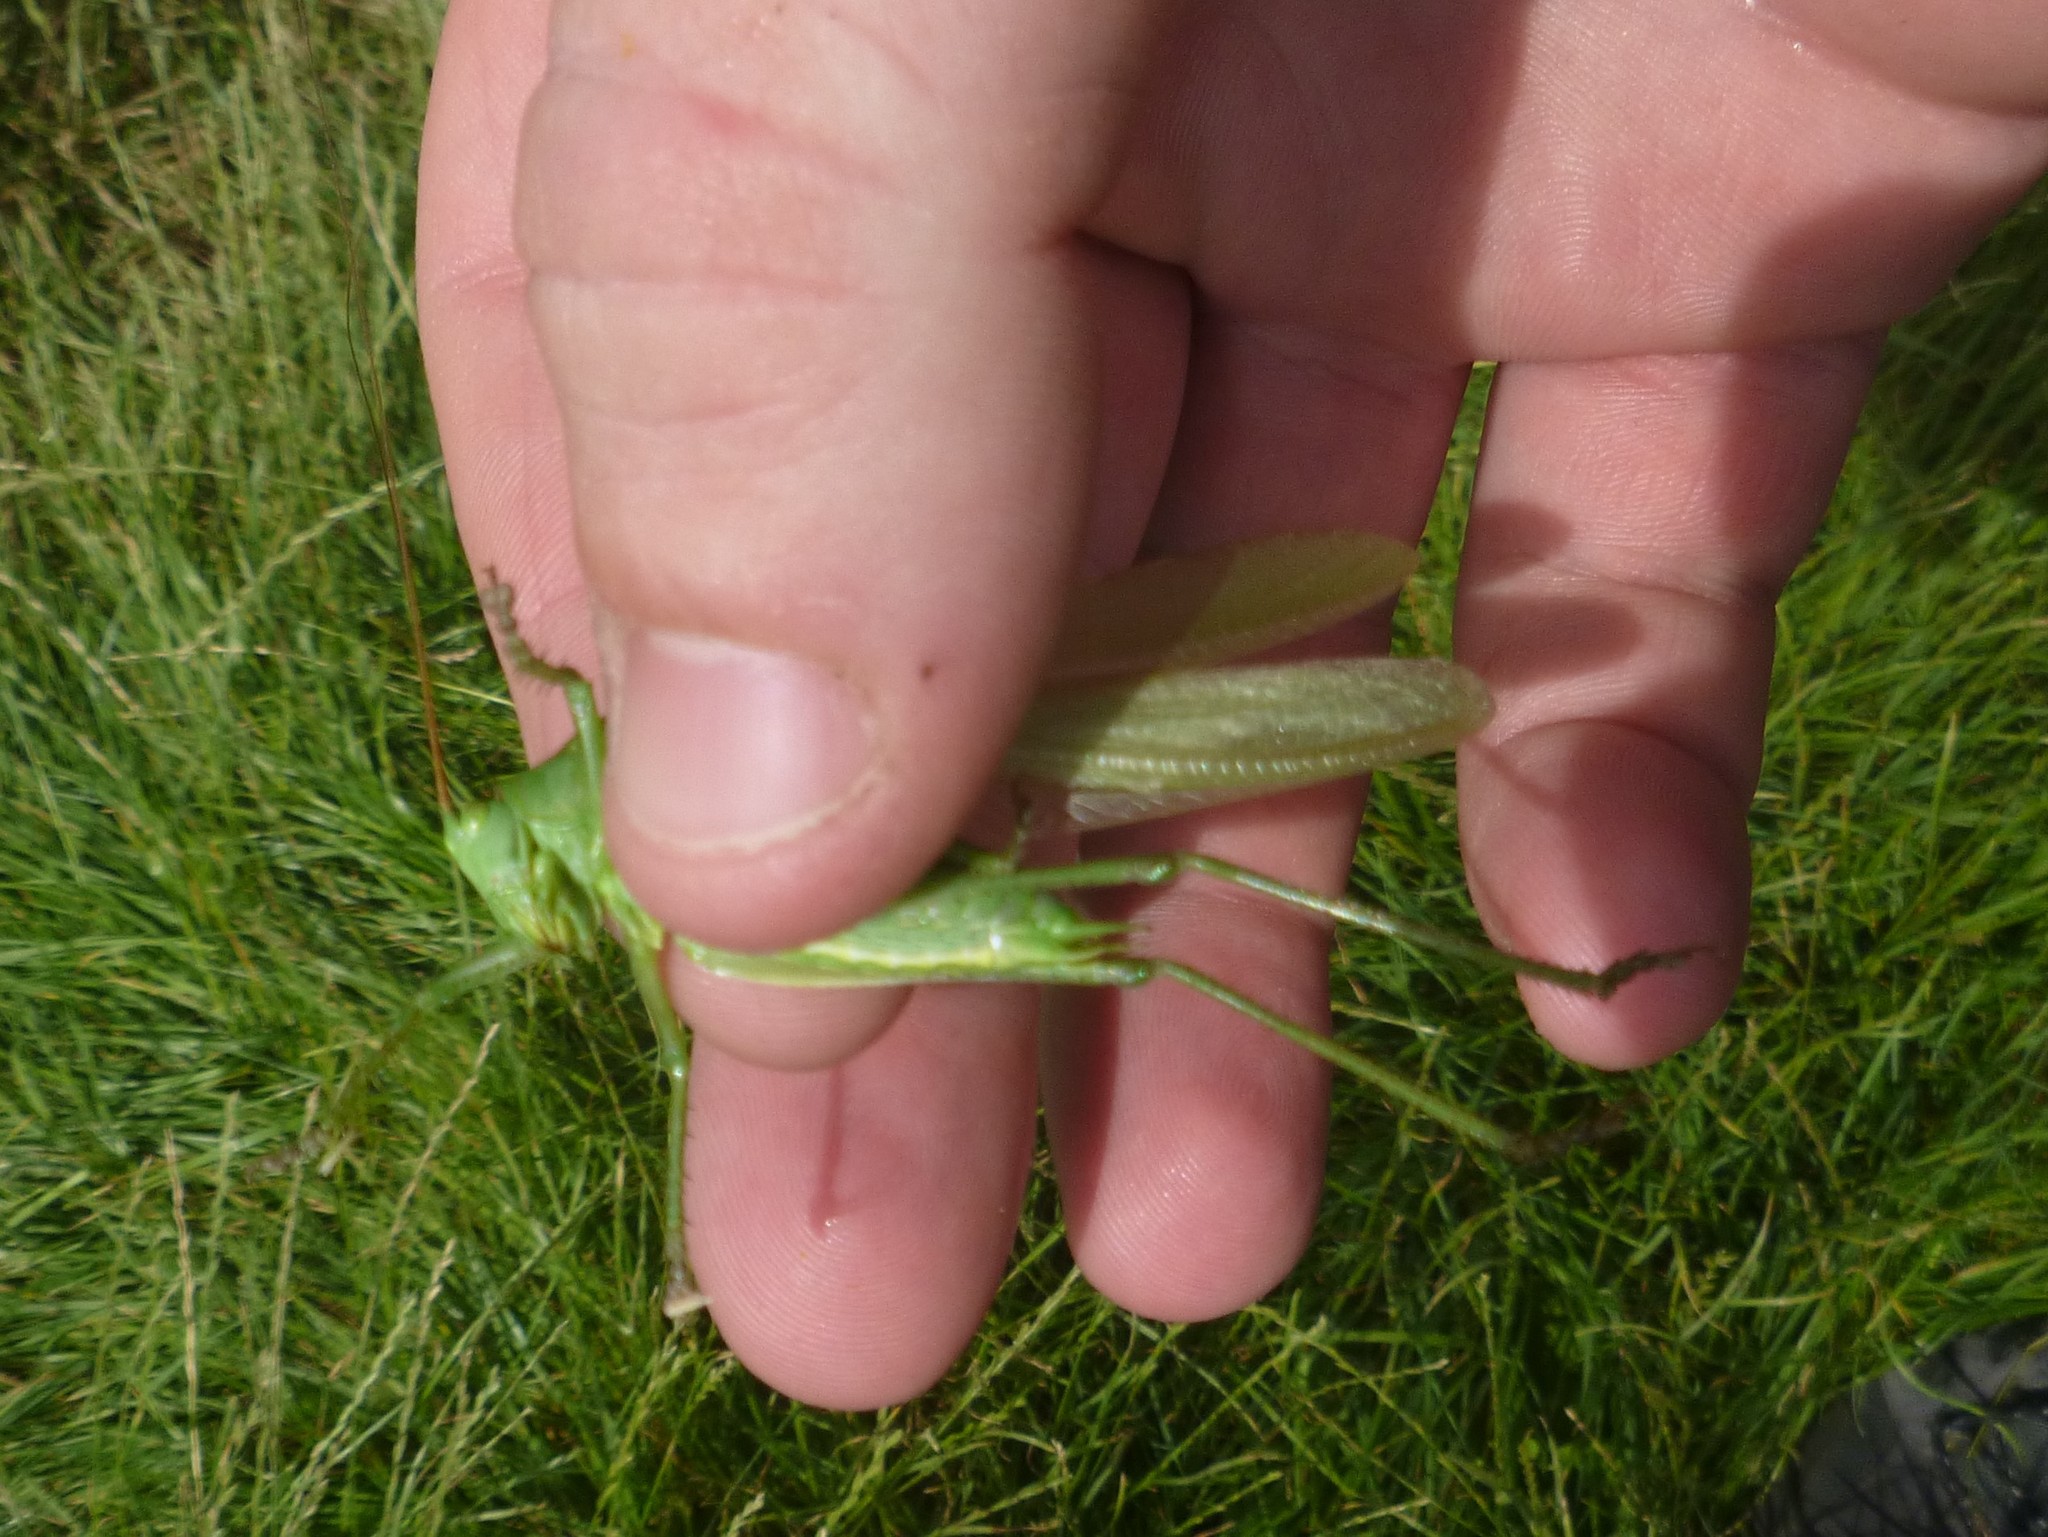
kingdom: Animalia
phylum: Arthropoda
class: Insecta
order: Orthoptera
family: Tettigoniidae
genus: Tettigonia
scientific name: Tettigonia viridissima
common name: Great green bush-cricket
